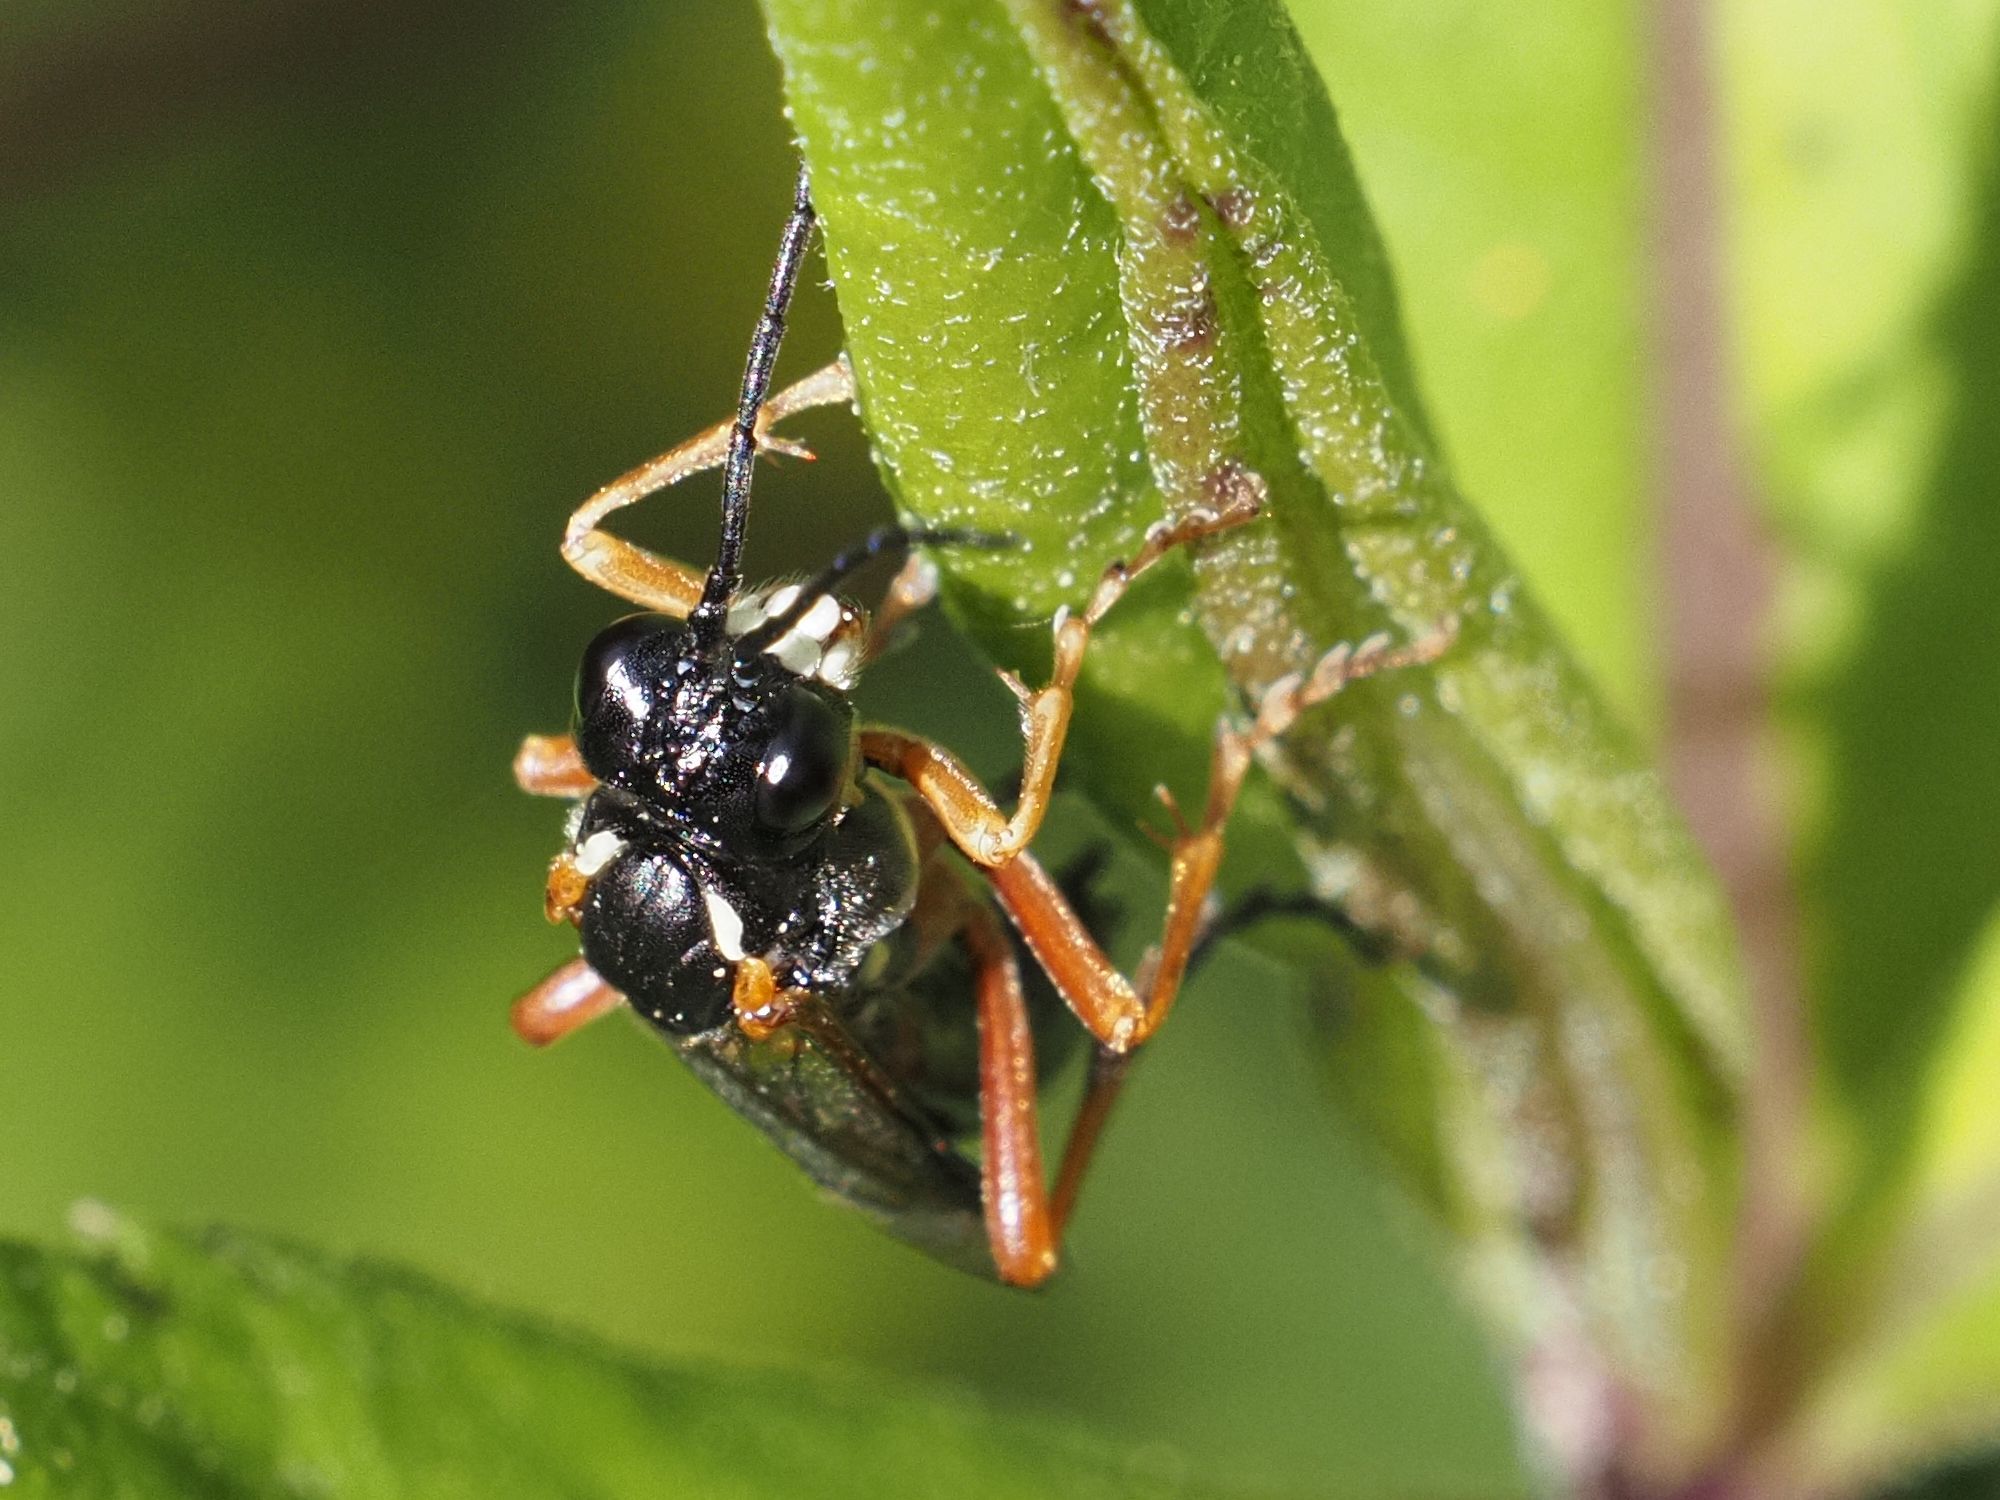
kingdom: Animalia
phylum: Arthropoda
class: Insecta
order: Hymenoptera
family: Tenthredinidae
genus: Tenthredo
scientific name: Tenthredo atra
